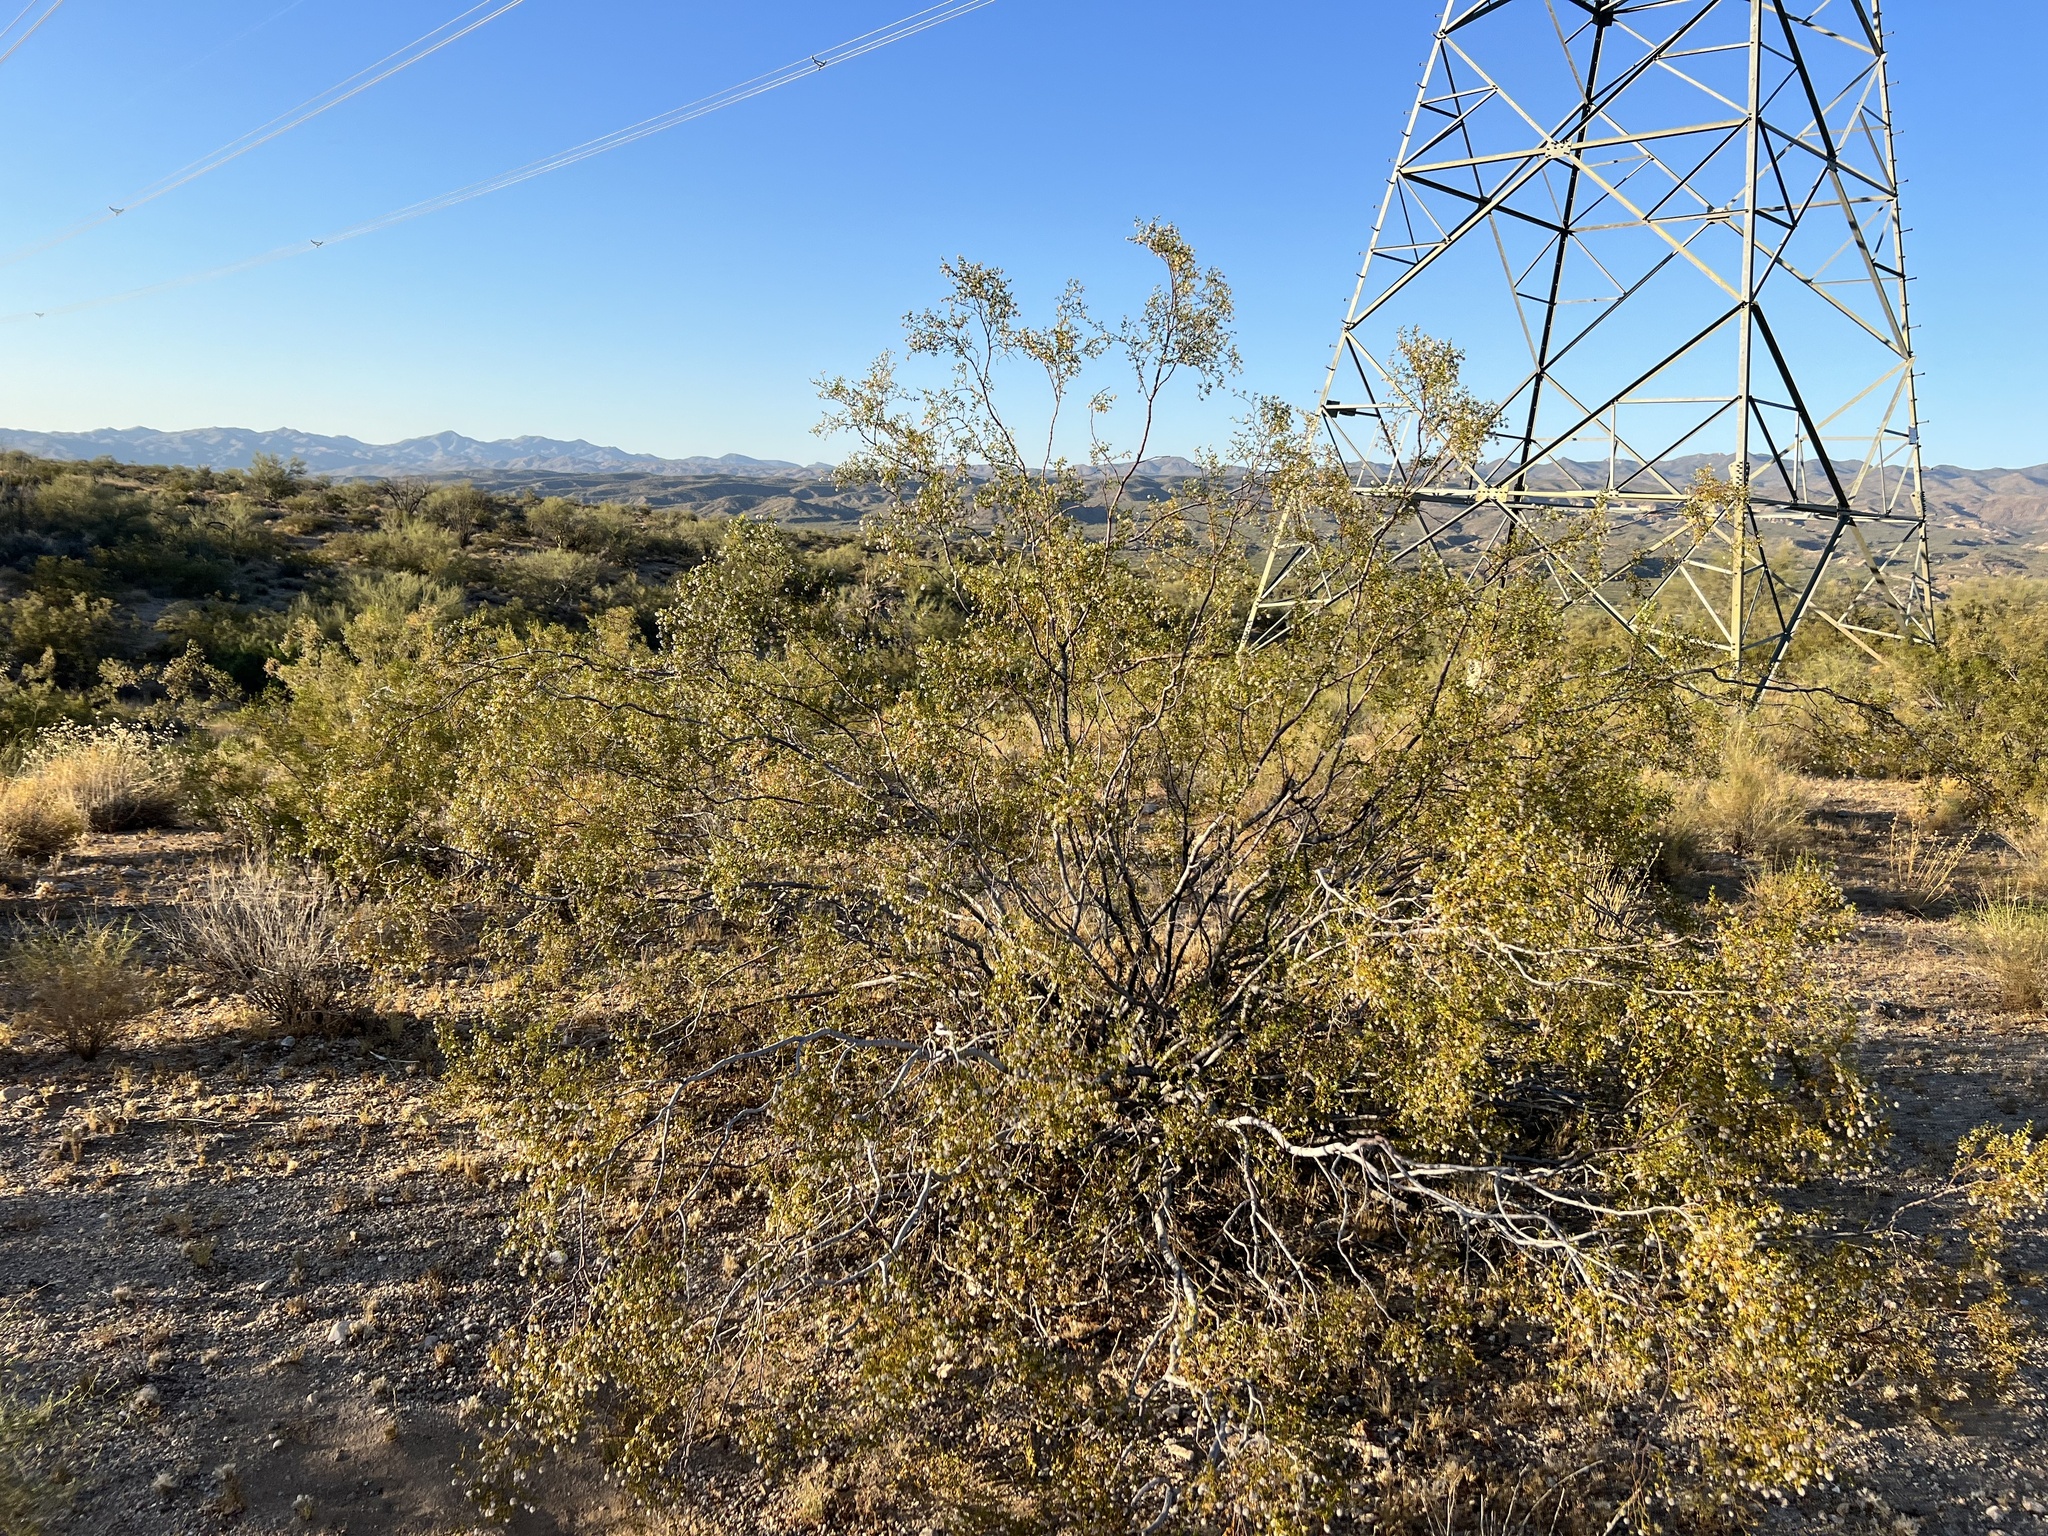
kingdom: Plantae
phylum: Tracheophyta
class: Magnoliopsida
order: Zygophyllales
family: Zygophyllaceae
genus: Larrea
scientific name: Larrea tridentata
